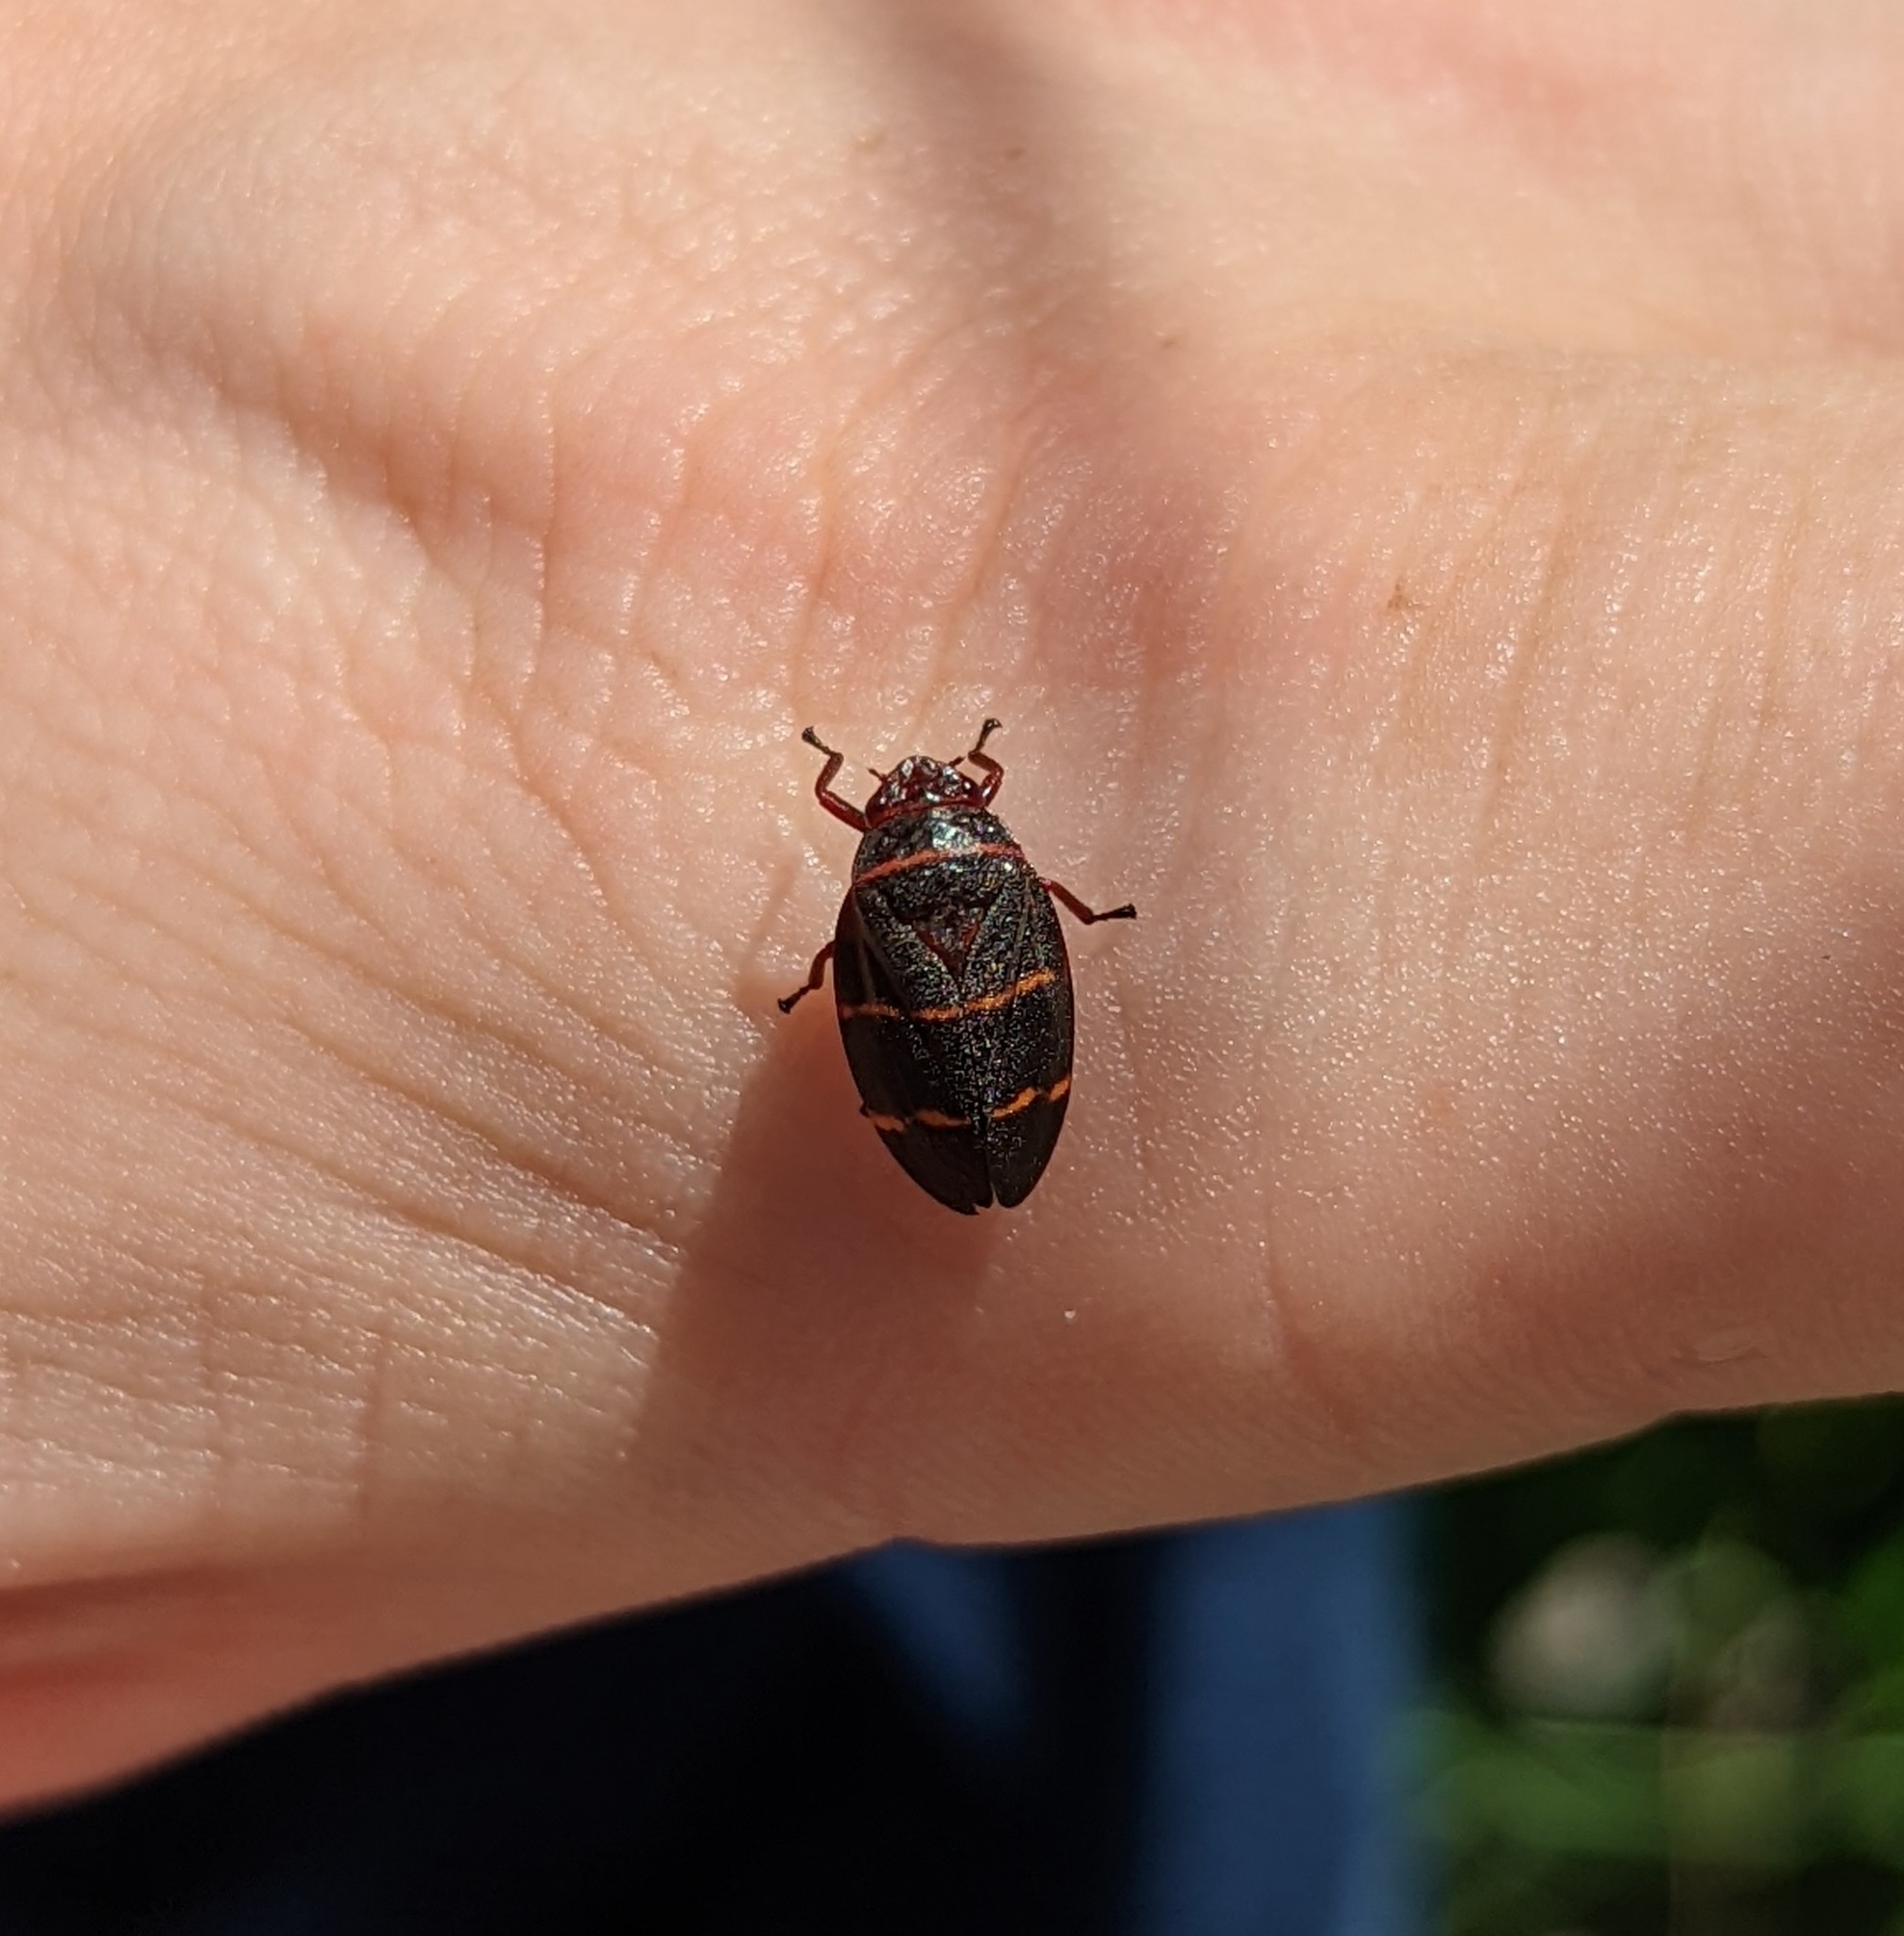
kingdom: Animalia
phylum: Arthropoda
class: Insecta
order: Hemiptera
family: Cercopidae
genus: Prosapia
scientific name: Prosapia bicincta
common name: Twolined spittlebug
